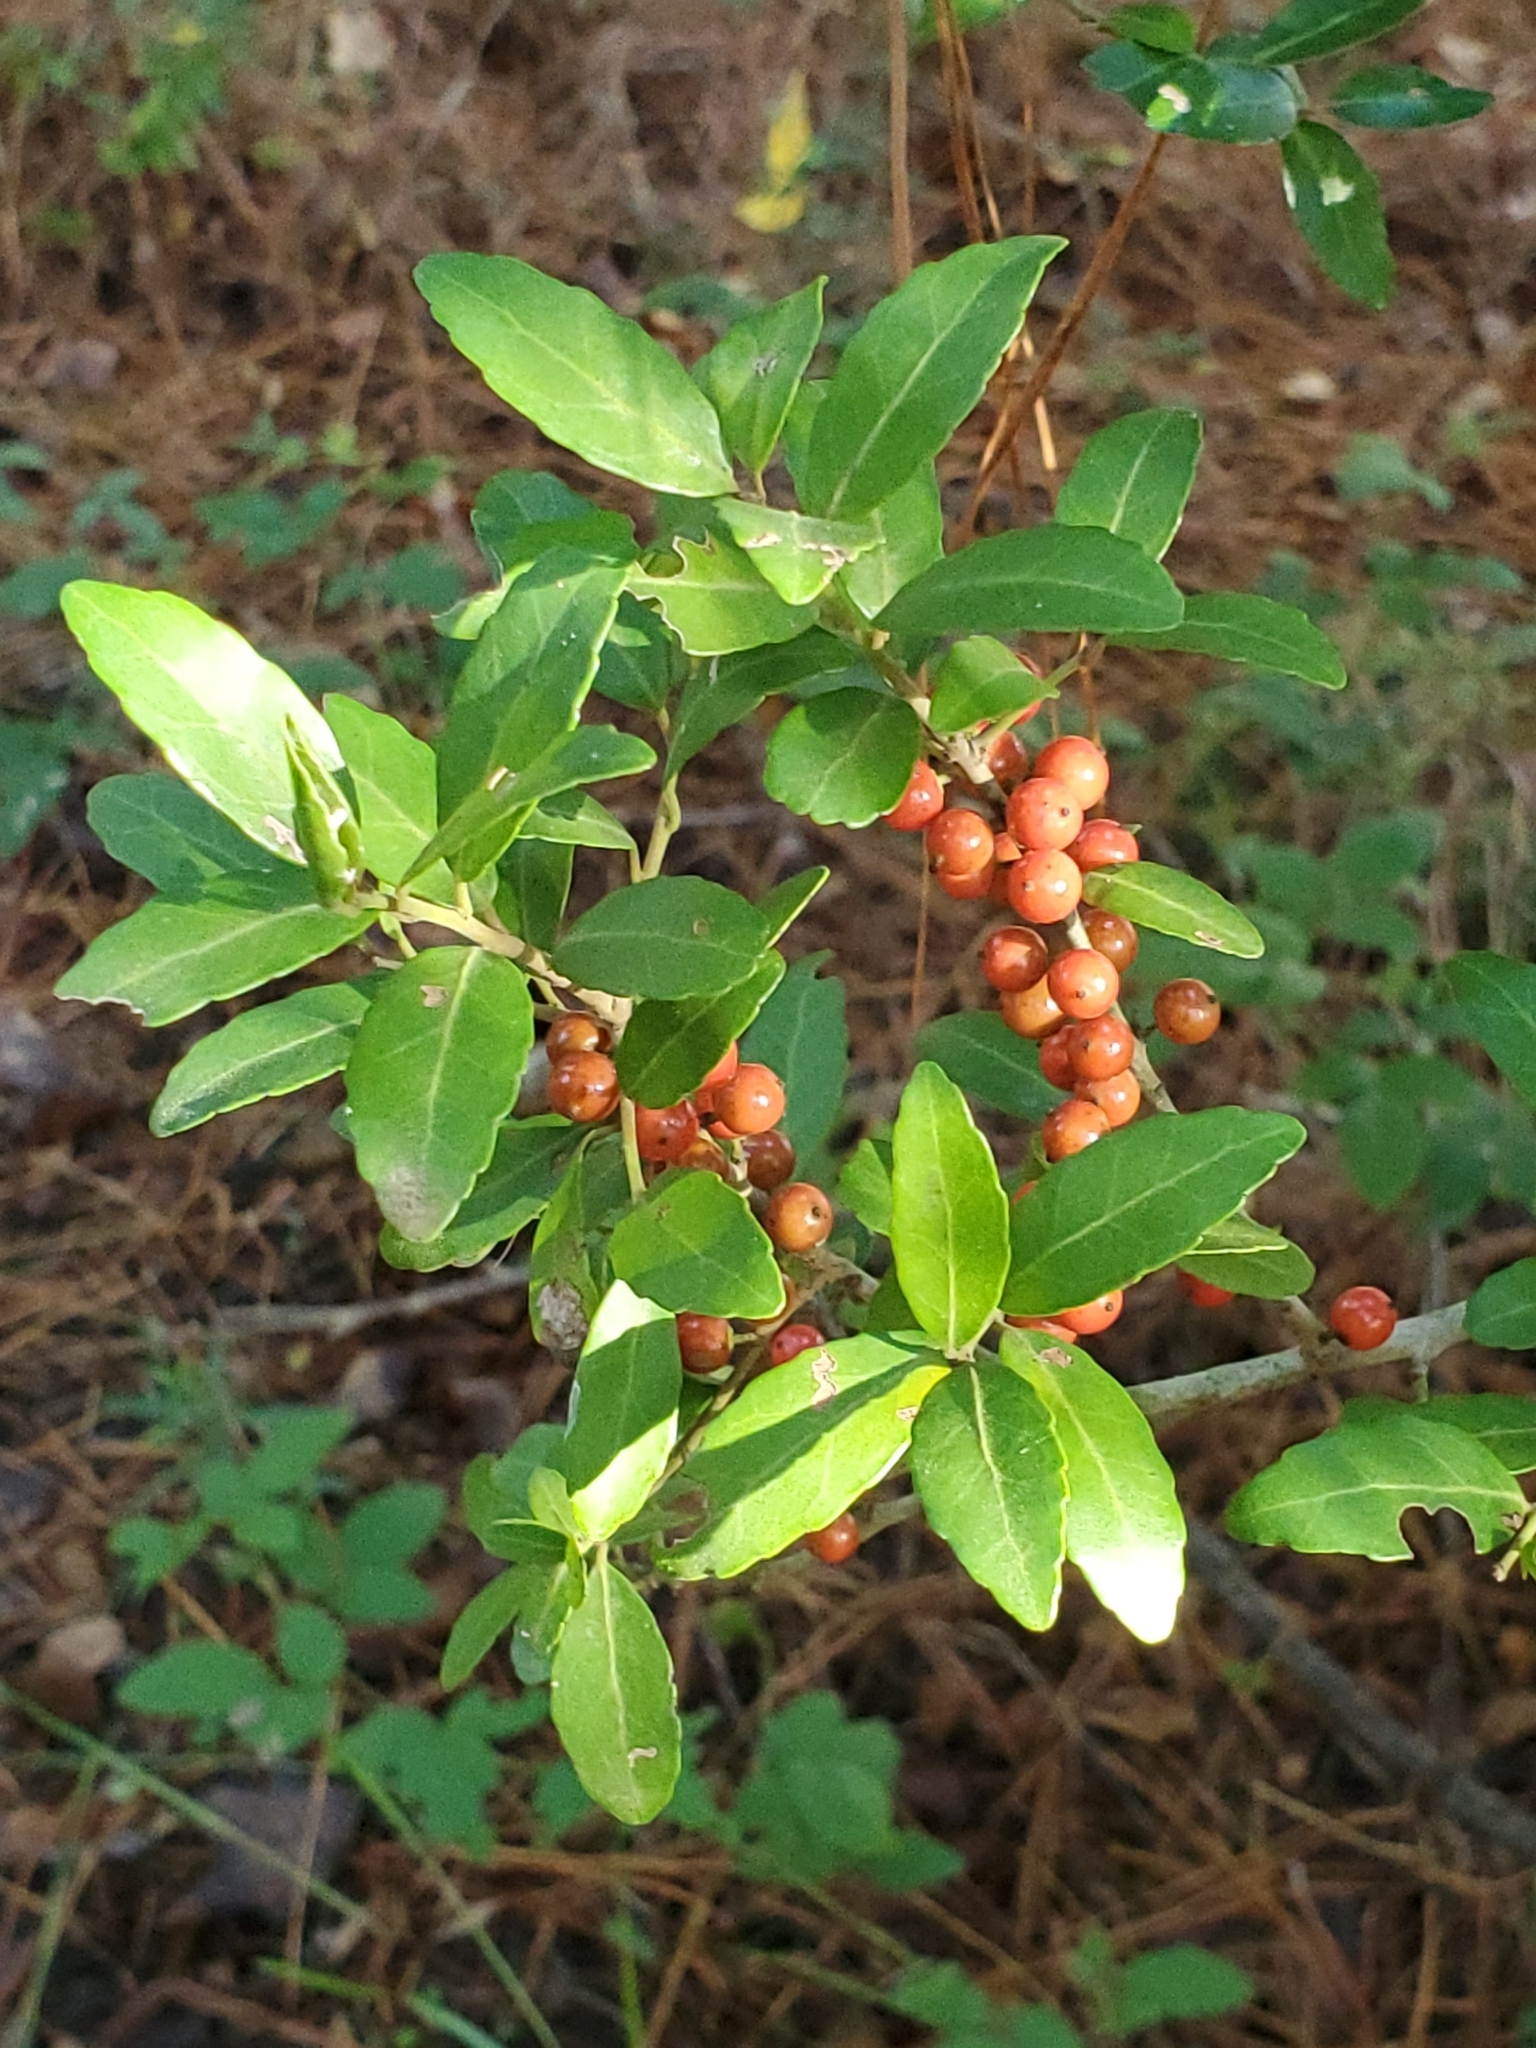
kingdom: Plantae
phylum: Tracheophyta
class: Magnoliopsida
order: Aquifoliales
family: Aquifoliaceae
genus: Ilex
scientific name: Ilex vomitoria
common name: Yaupon holly
